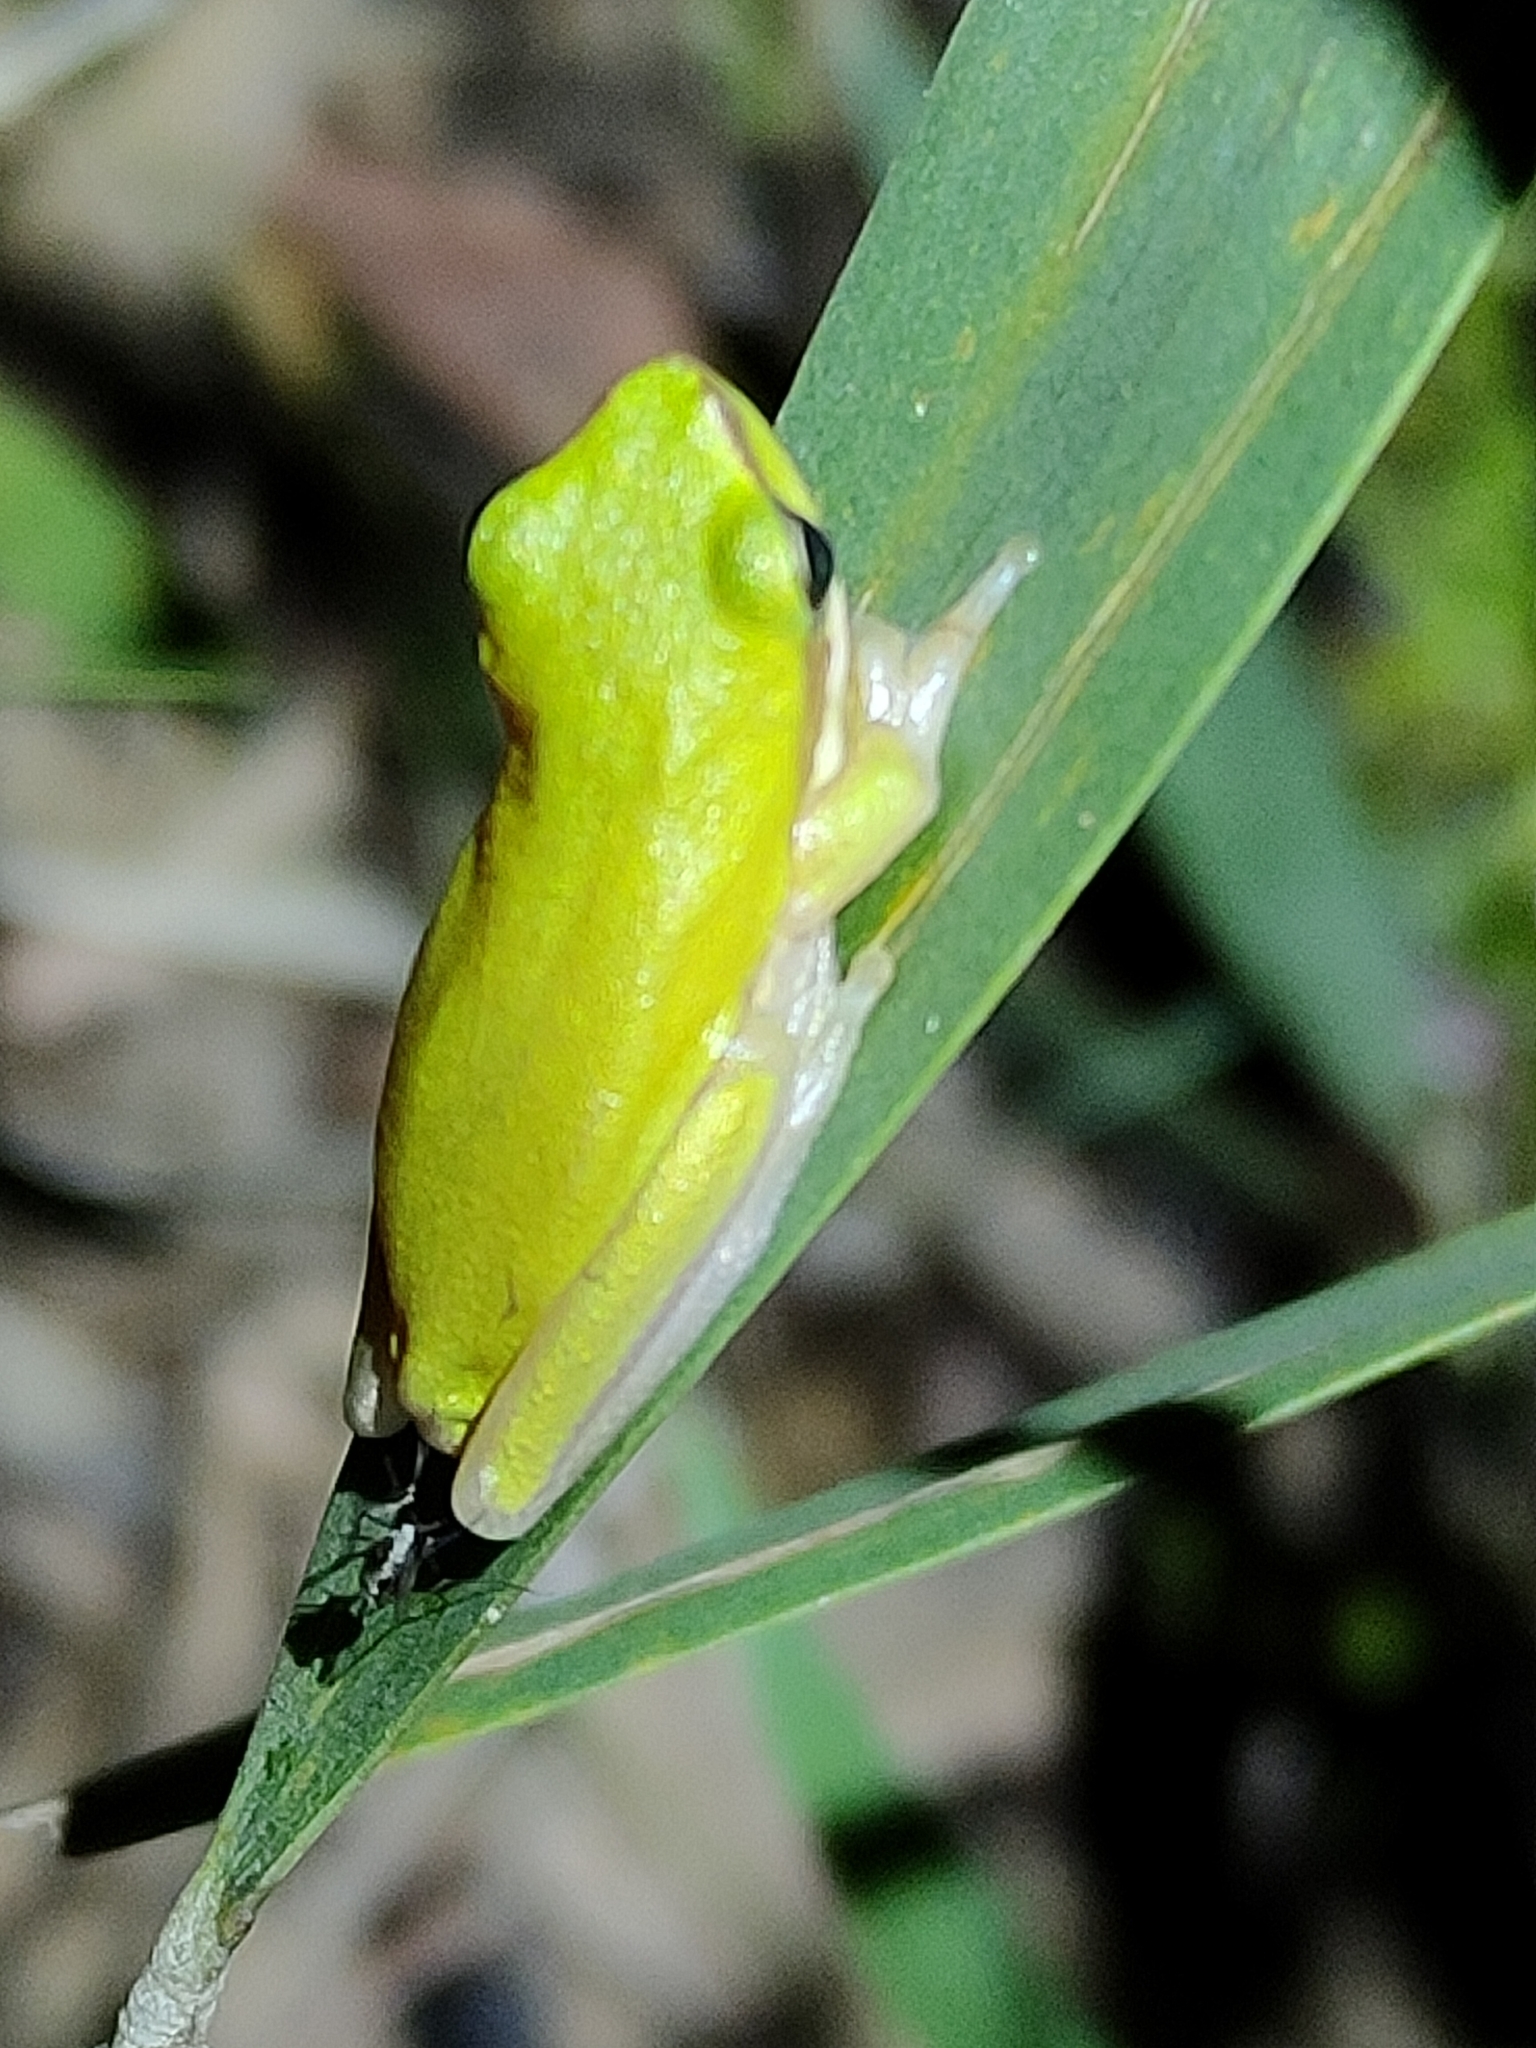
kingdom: Animalia
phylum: Chordata
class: Amphibia
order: Anura
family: Pelodryadidae
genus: Litoria
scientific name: Litoria fallax
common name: Eastern dwarf treefrog
